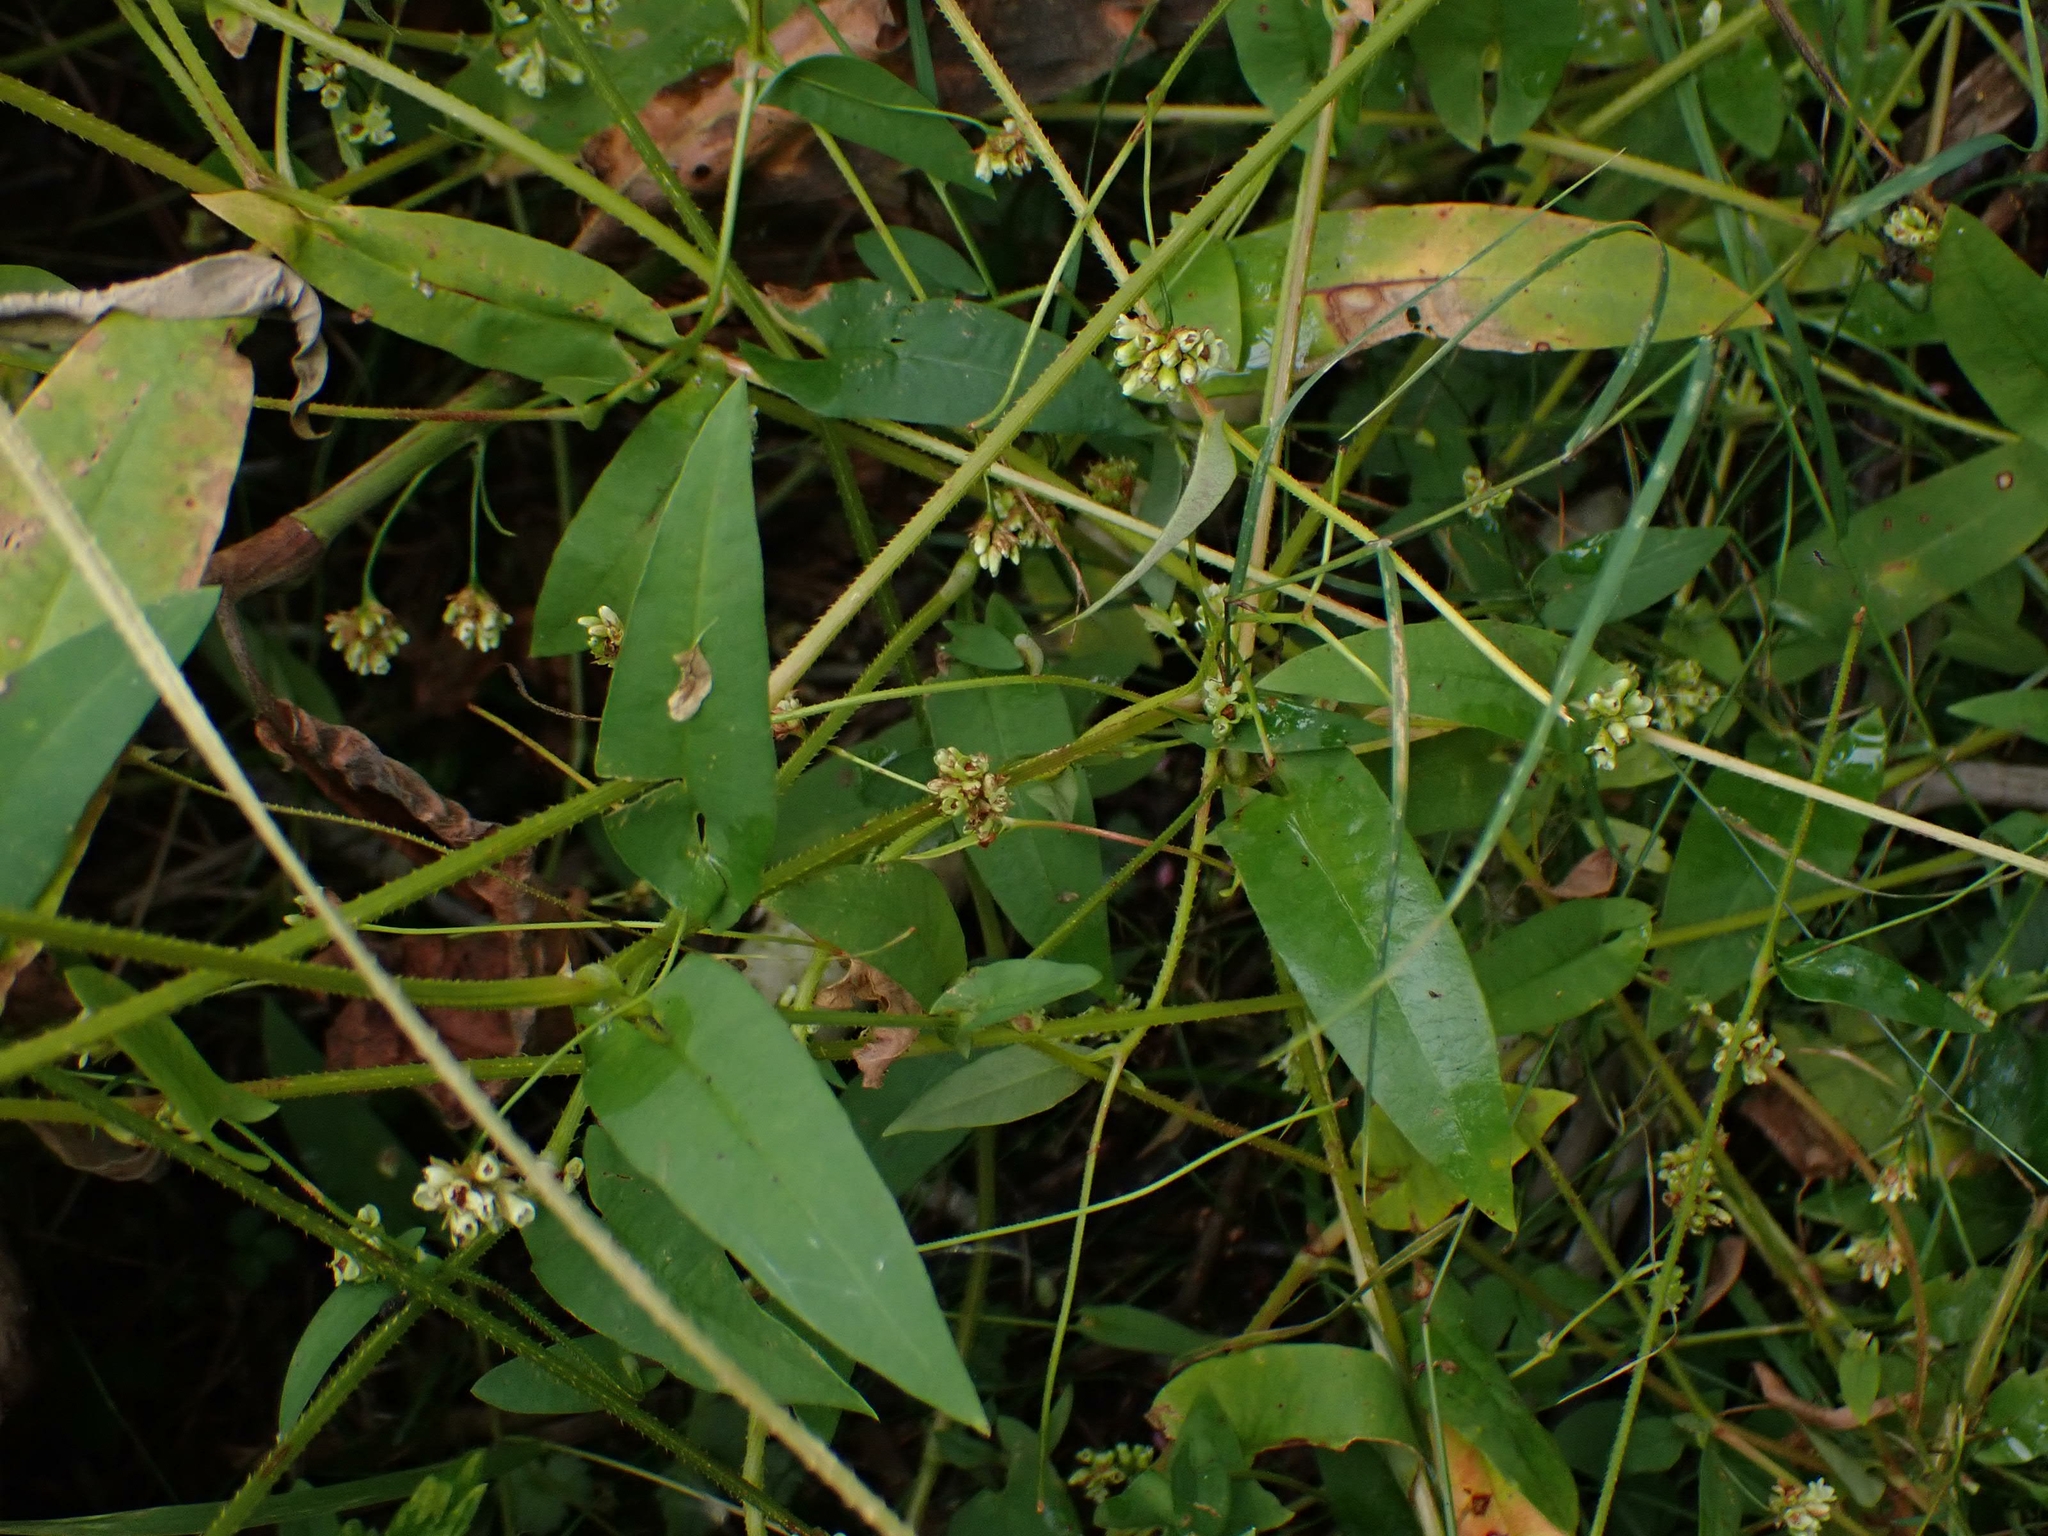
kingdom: Plantae
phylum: Tracheophyta
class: Magnoliopsida
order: Caryophyllales
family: Polygonaceae
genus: Persicaria
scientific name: Persicaria sagittata
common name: American tearthumb
